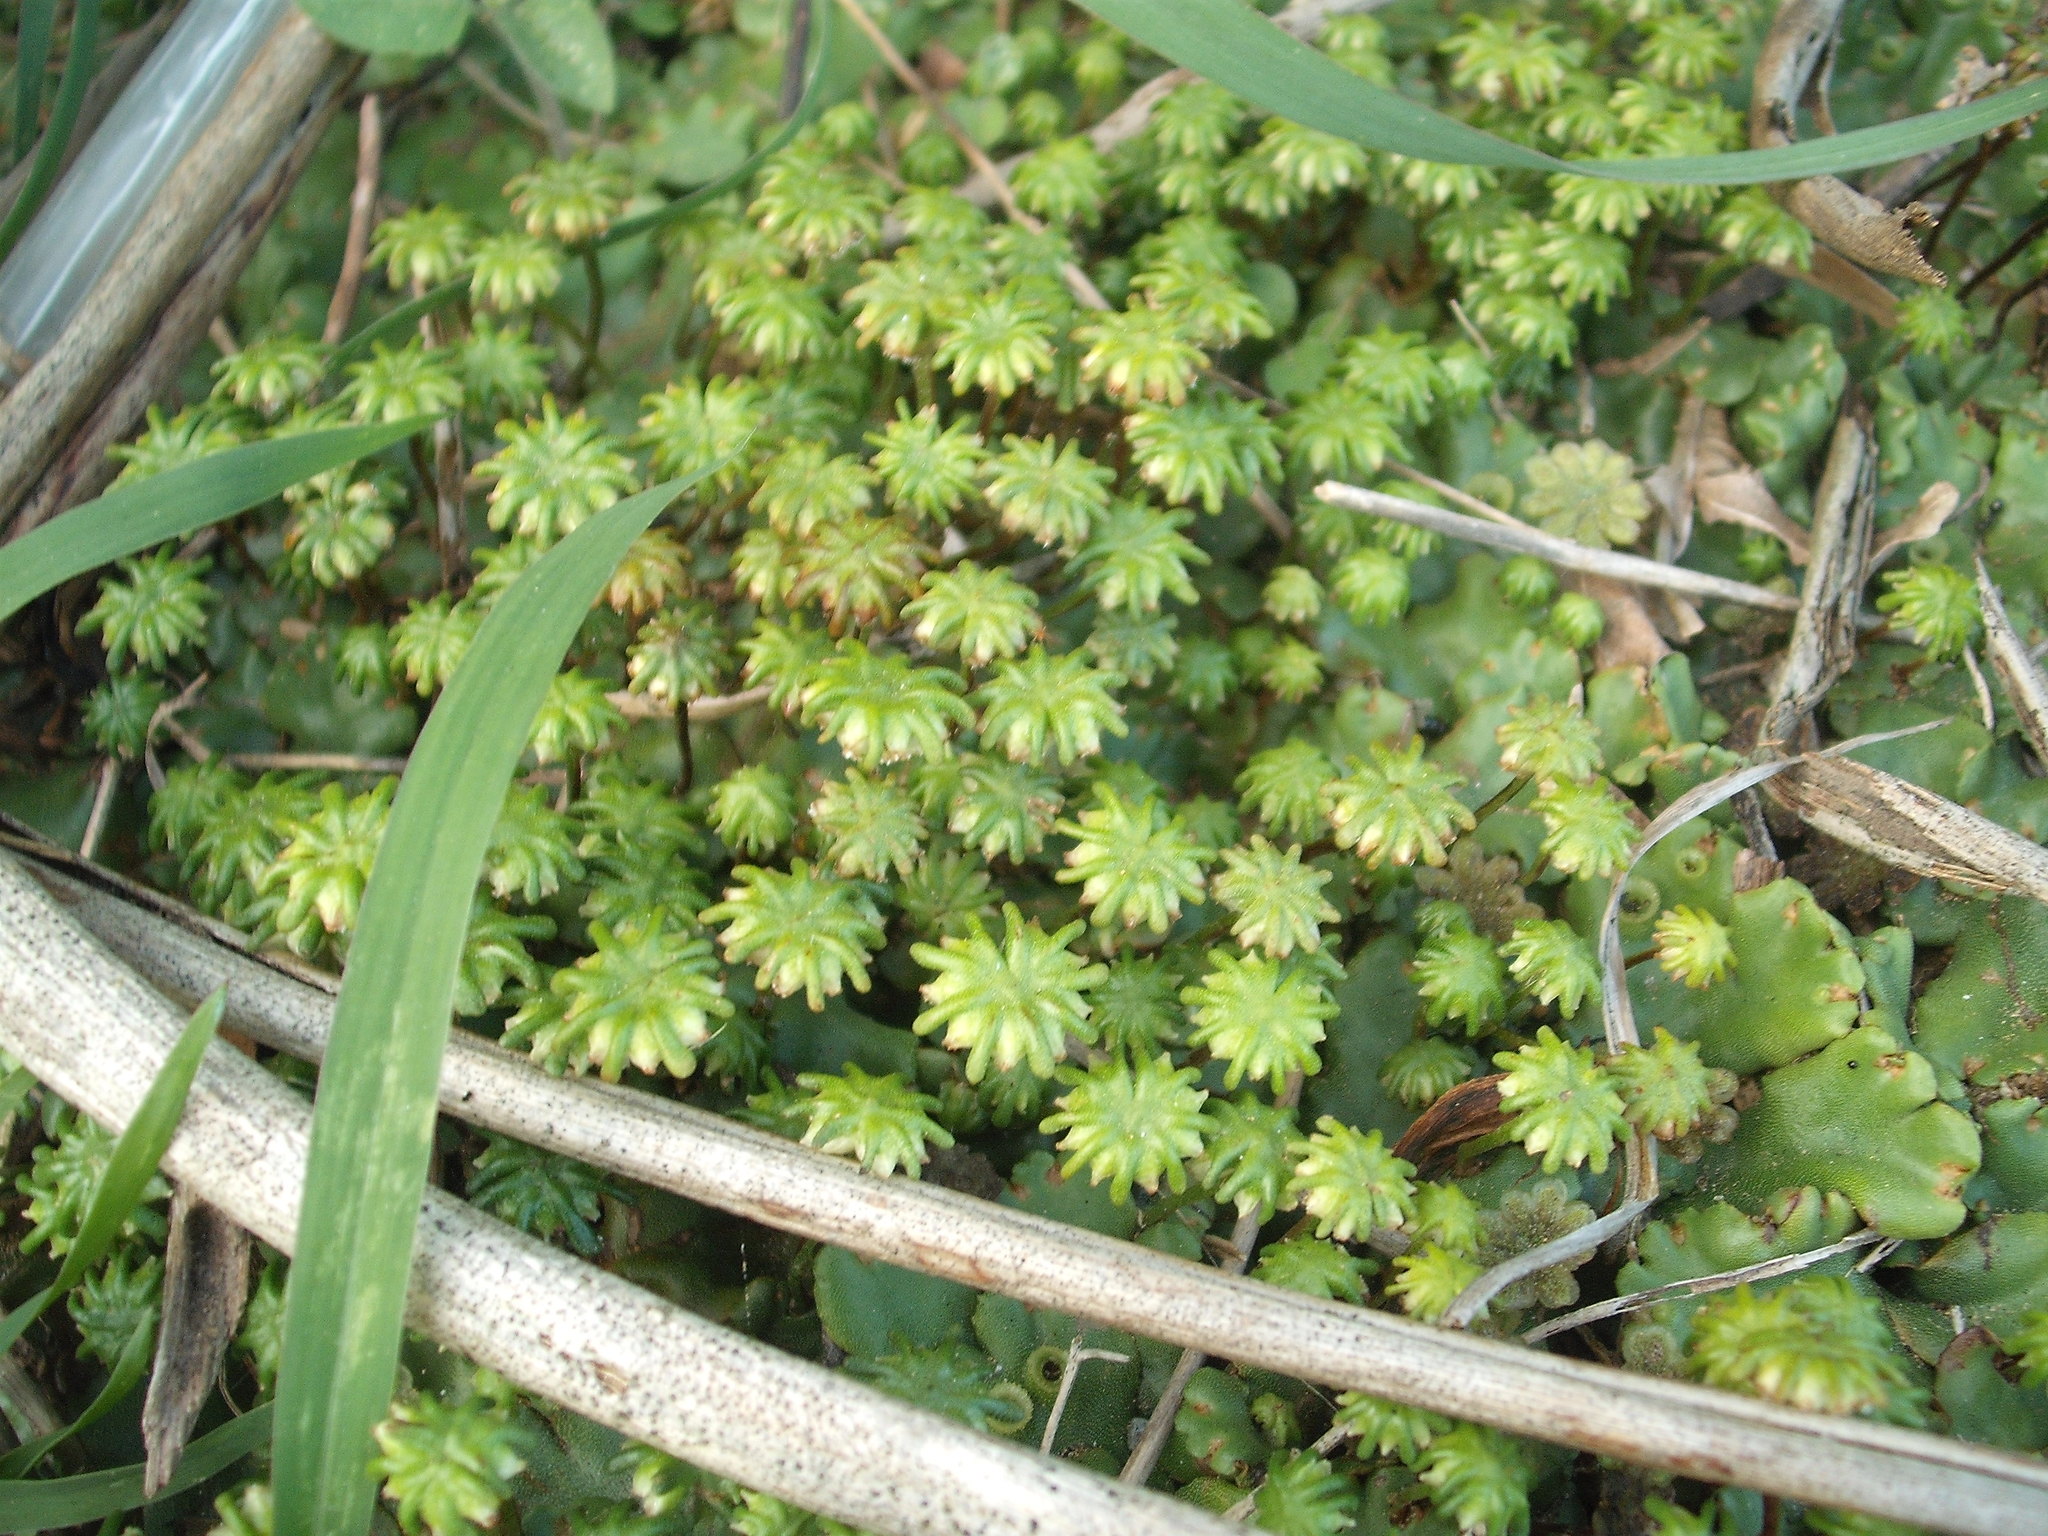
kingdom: Plantae
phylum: Marchantiophyta
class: Marchantiopsida
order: Marchantiales
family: Marchantiaceae
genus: Marchantia
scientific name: Marchantia berteroana
